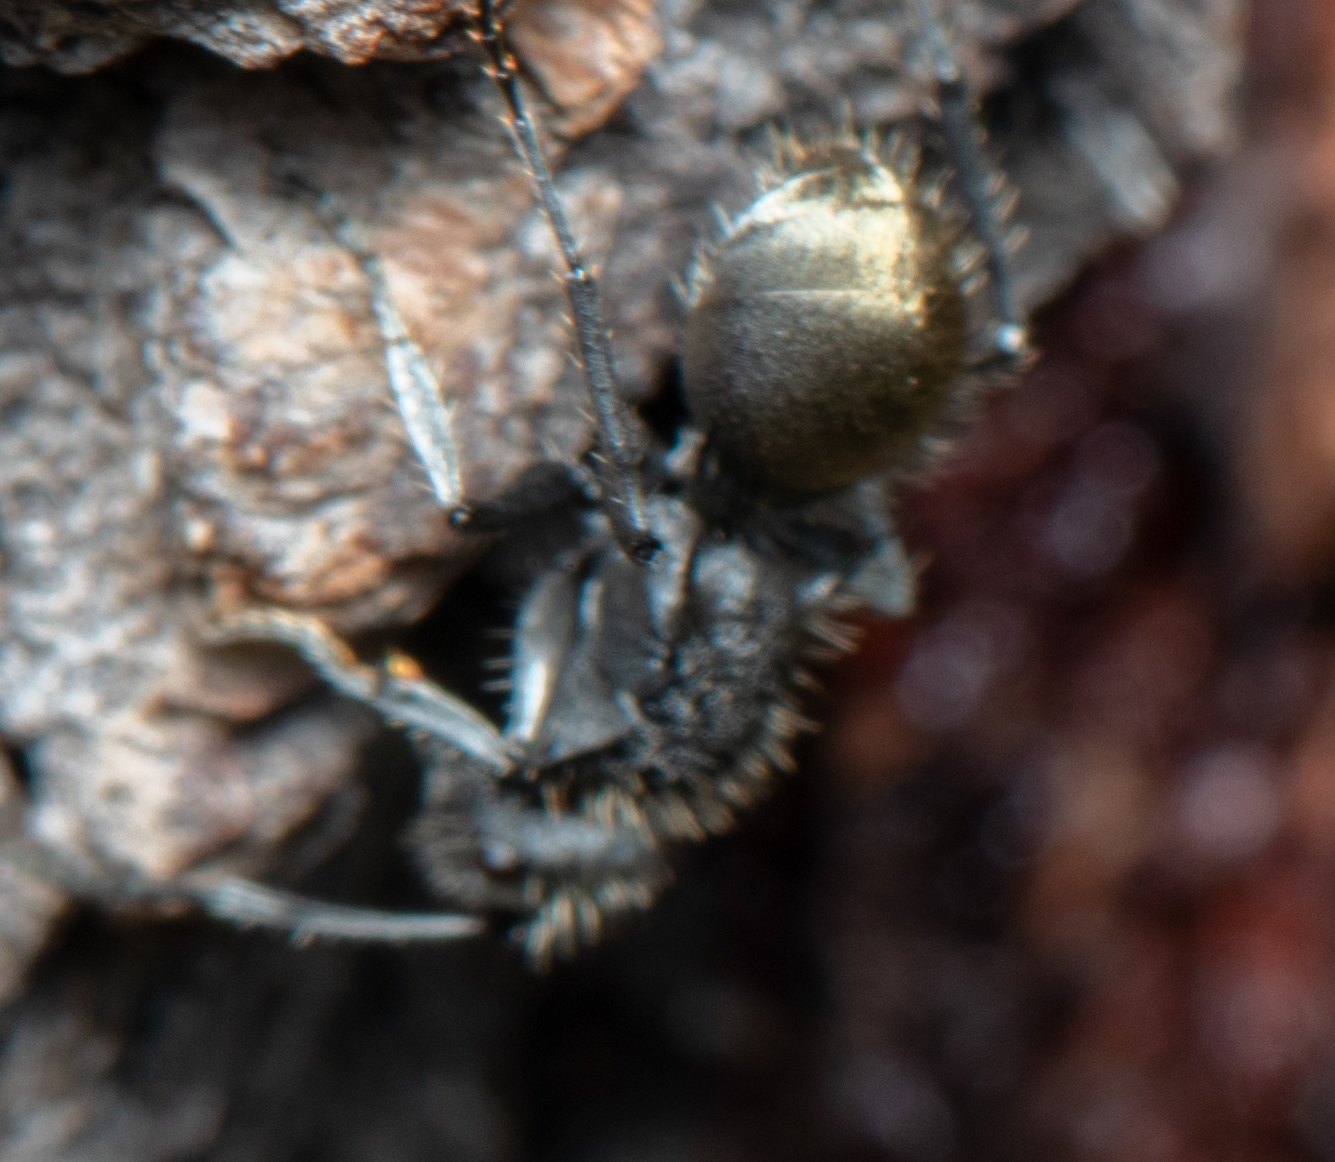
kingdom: Animalia
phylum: Arthropoda
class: Insecta
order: Hymenoptera
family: Formicidae
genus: Polyrhachis
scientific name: Polyrhachis senilis
